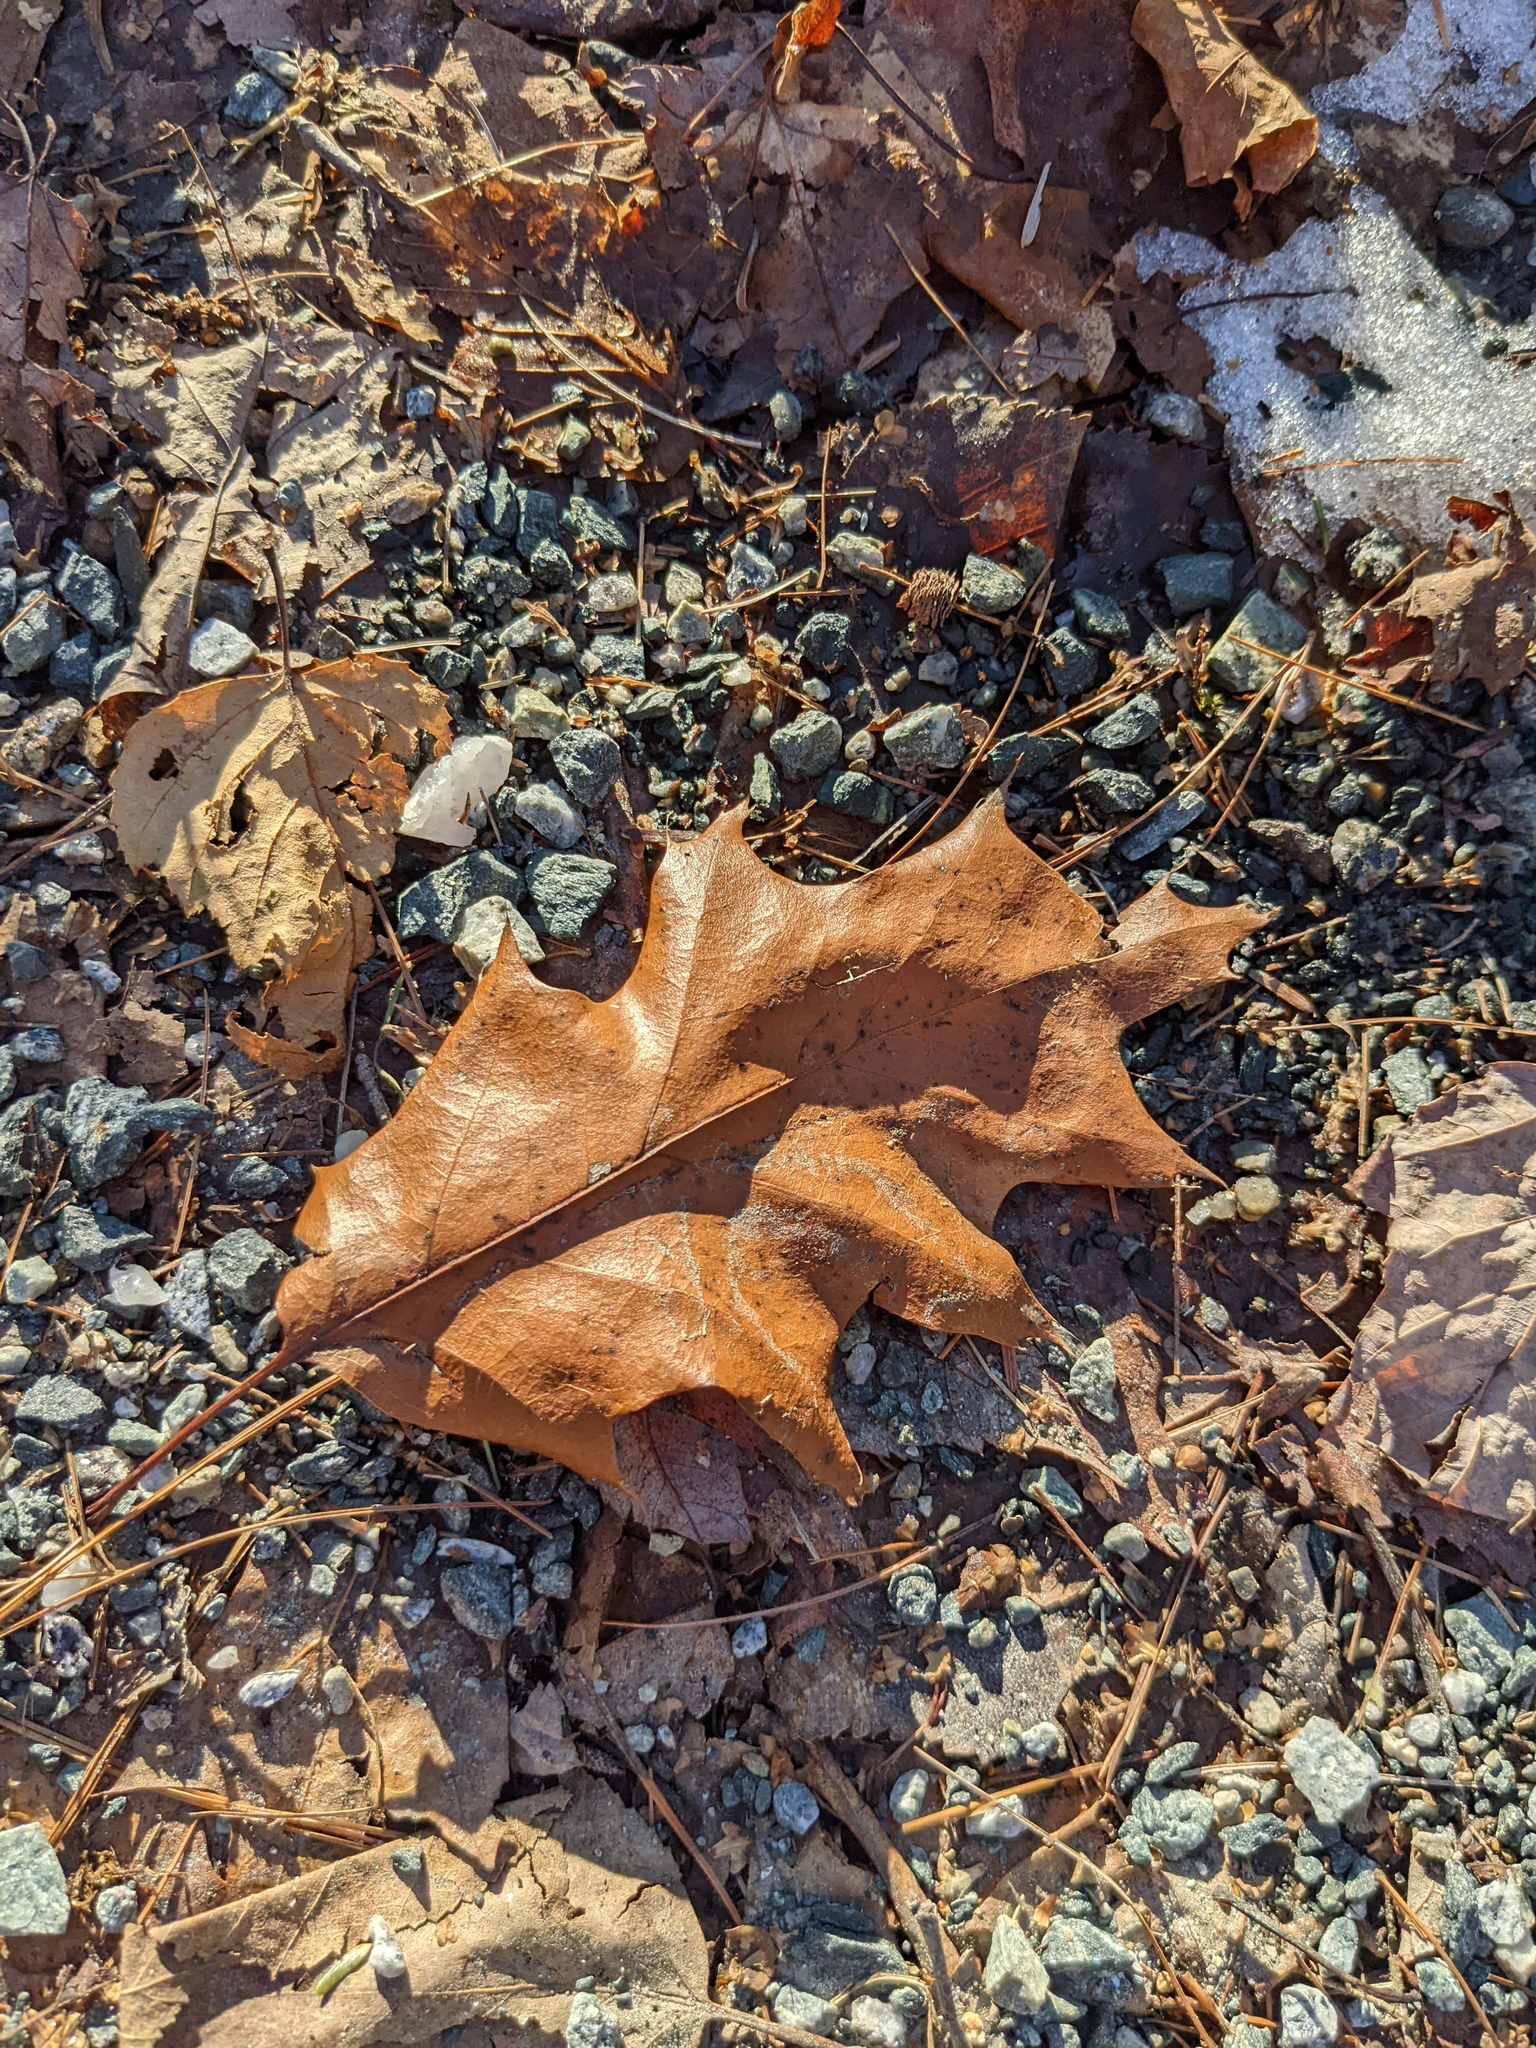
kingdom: Plantae
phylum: Tracheophyta
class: Magnoliopsida
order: Fagales
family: Fagaceae
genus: Quercus
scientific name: Quercus rubra
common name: Red oak
